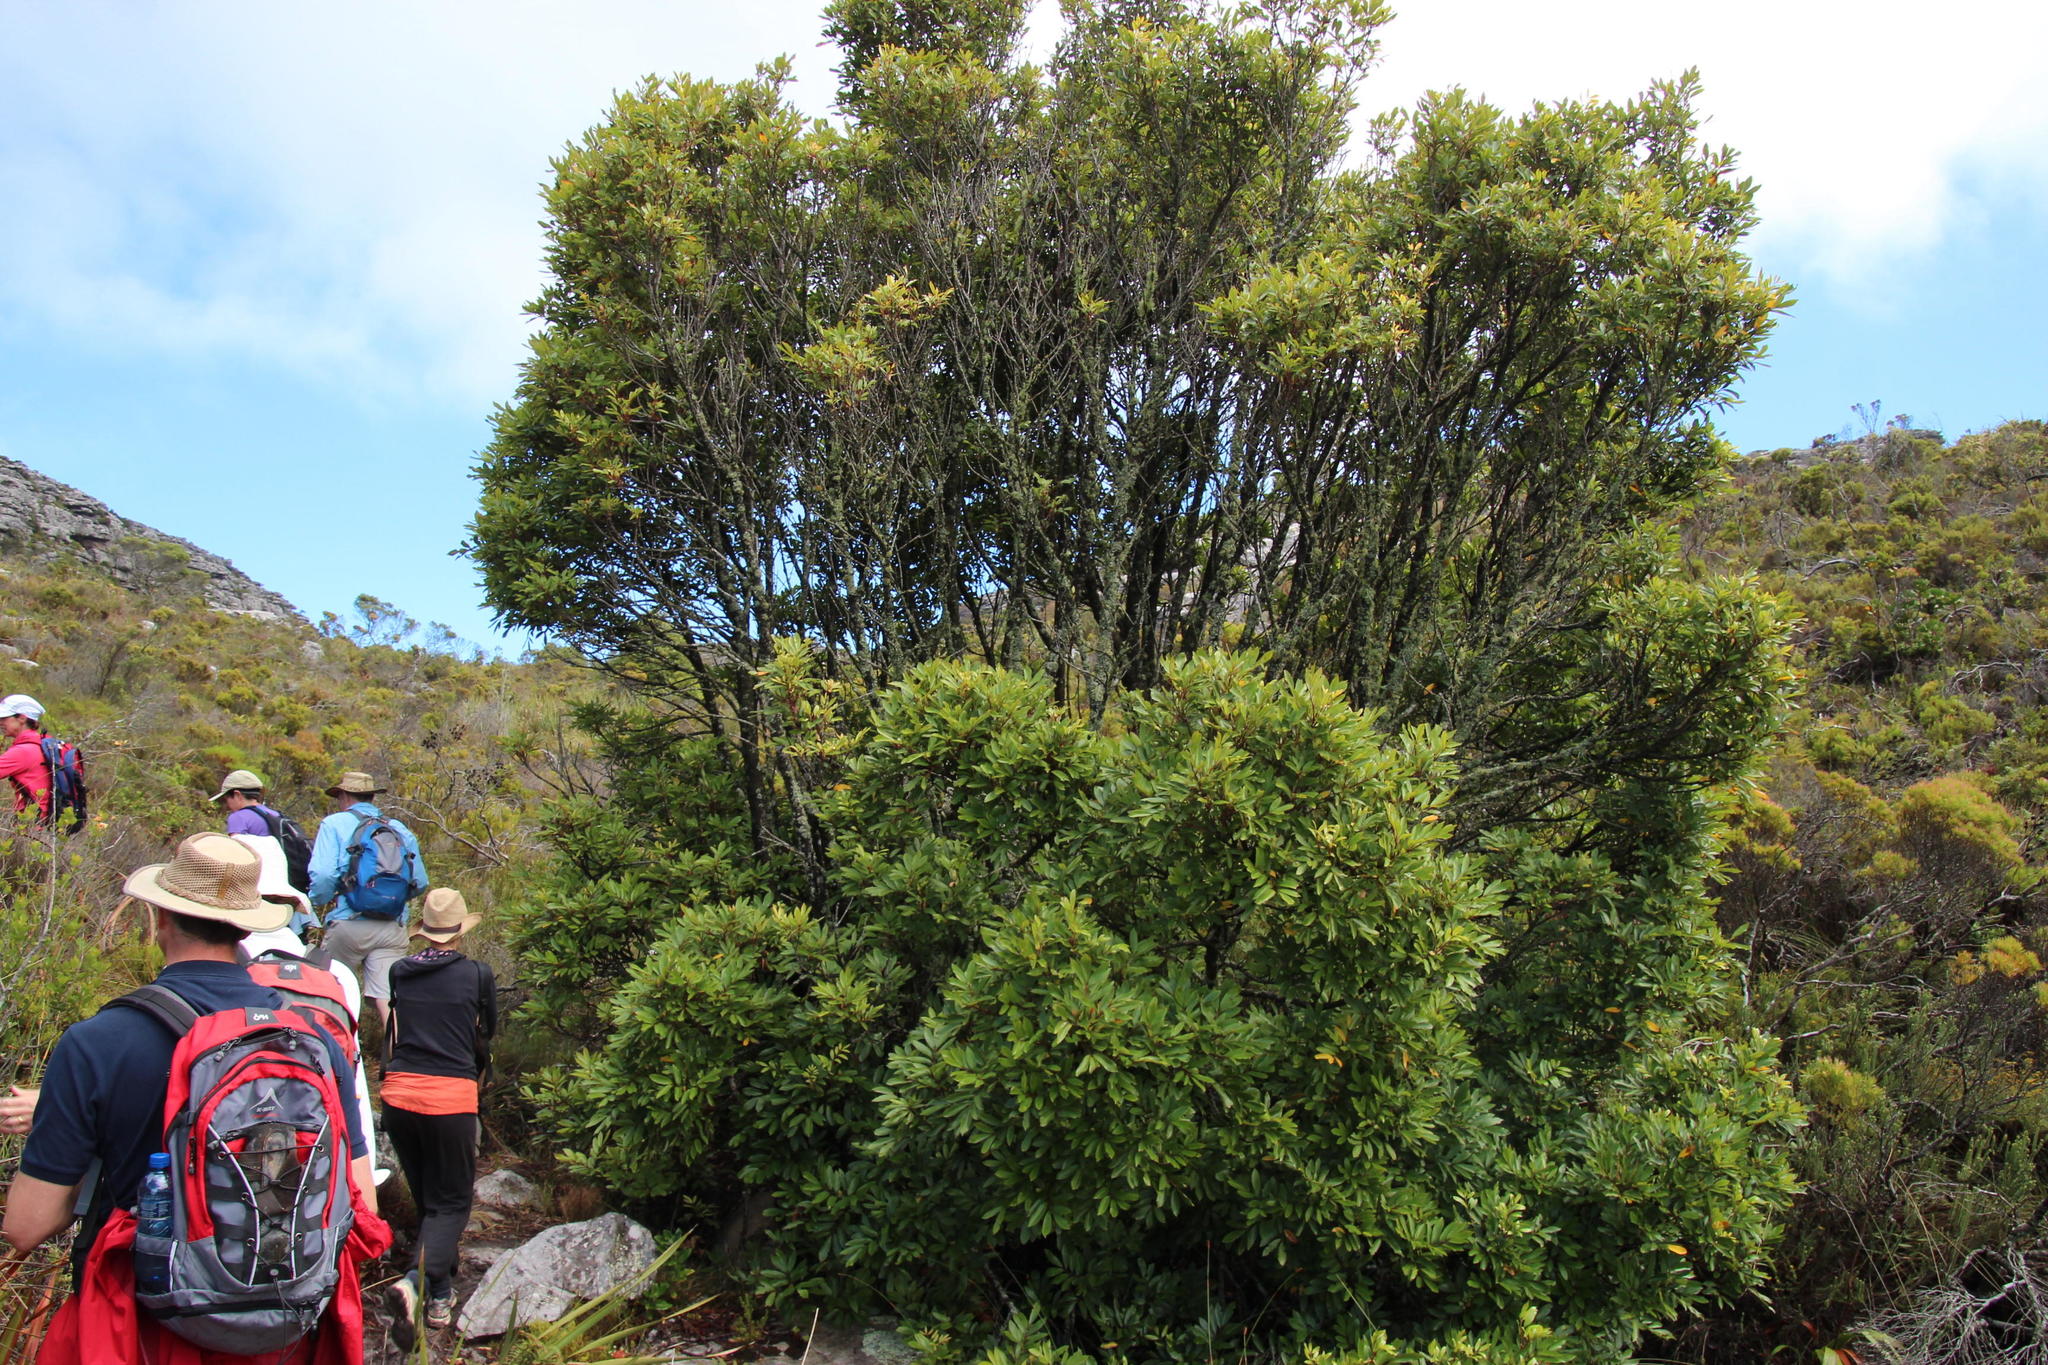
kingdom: Plantae
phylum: Tracheophyta
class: Magnoliopsida
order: Oxalidales
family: Cunoniaceae
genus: Cunonia
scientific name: Cunonia capensis
